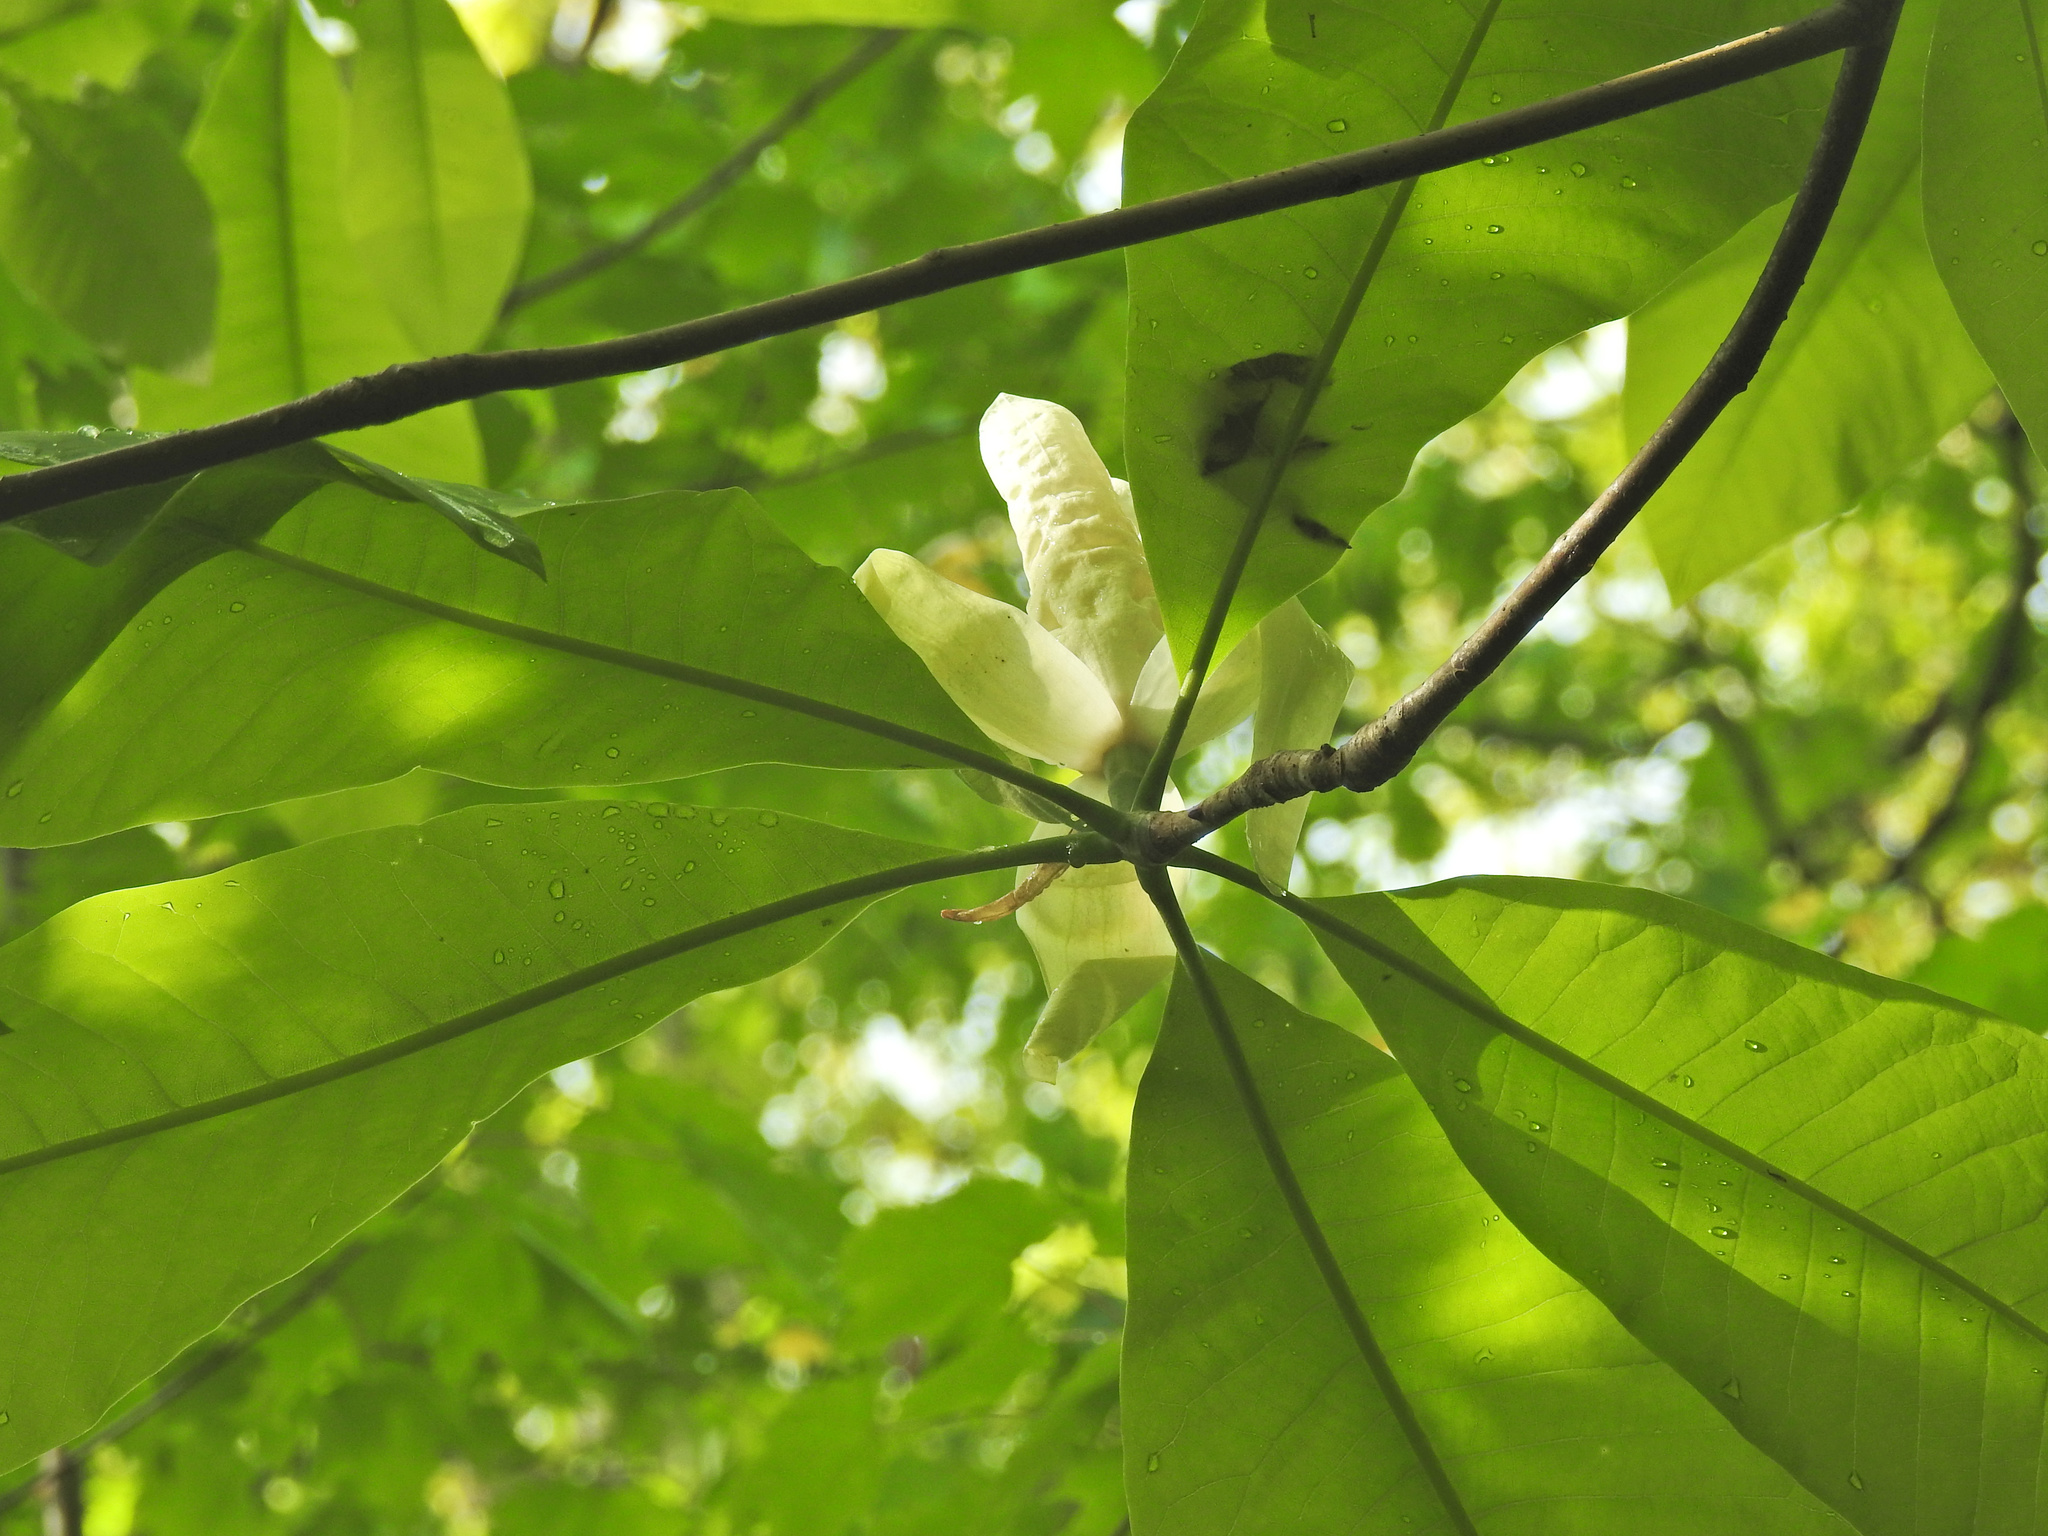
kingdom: Plantae
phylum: Tracheophyta
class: Magnoliopsida
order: Magnoliales
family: Magnoliaceae
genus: Magnolia
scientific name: Magnolia tripetala
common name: Umbrella magnolia
